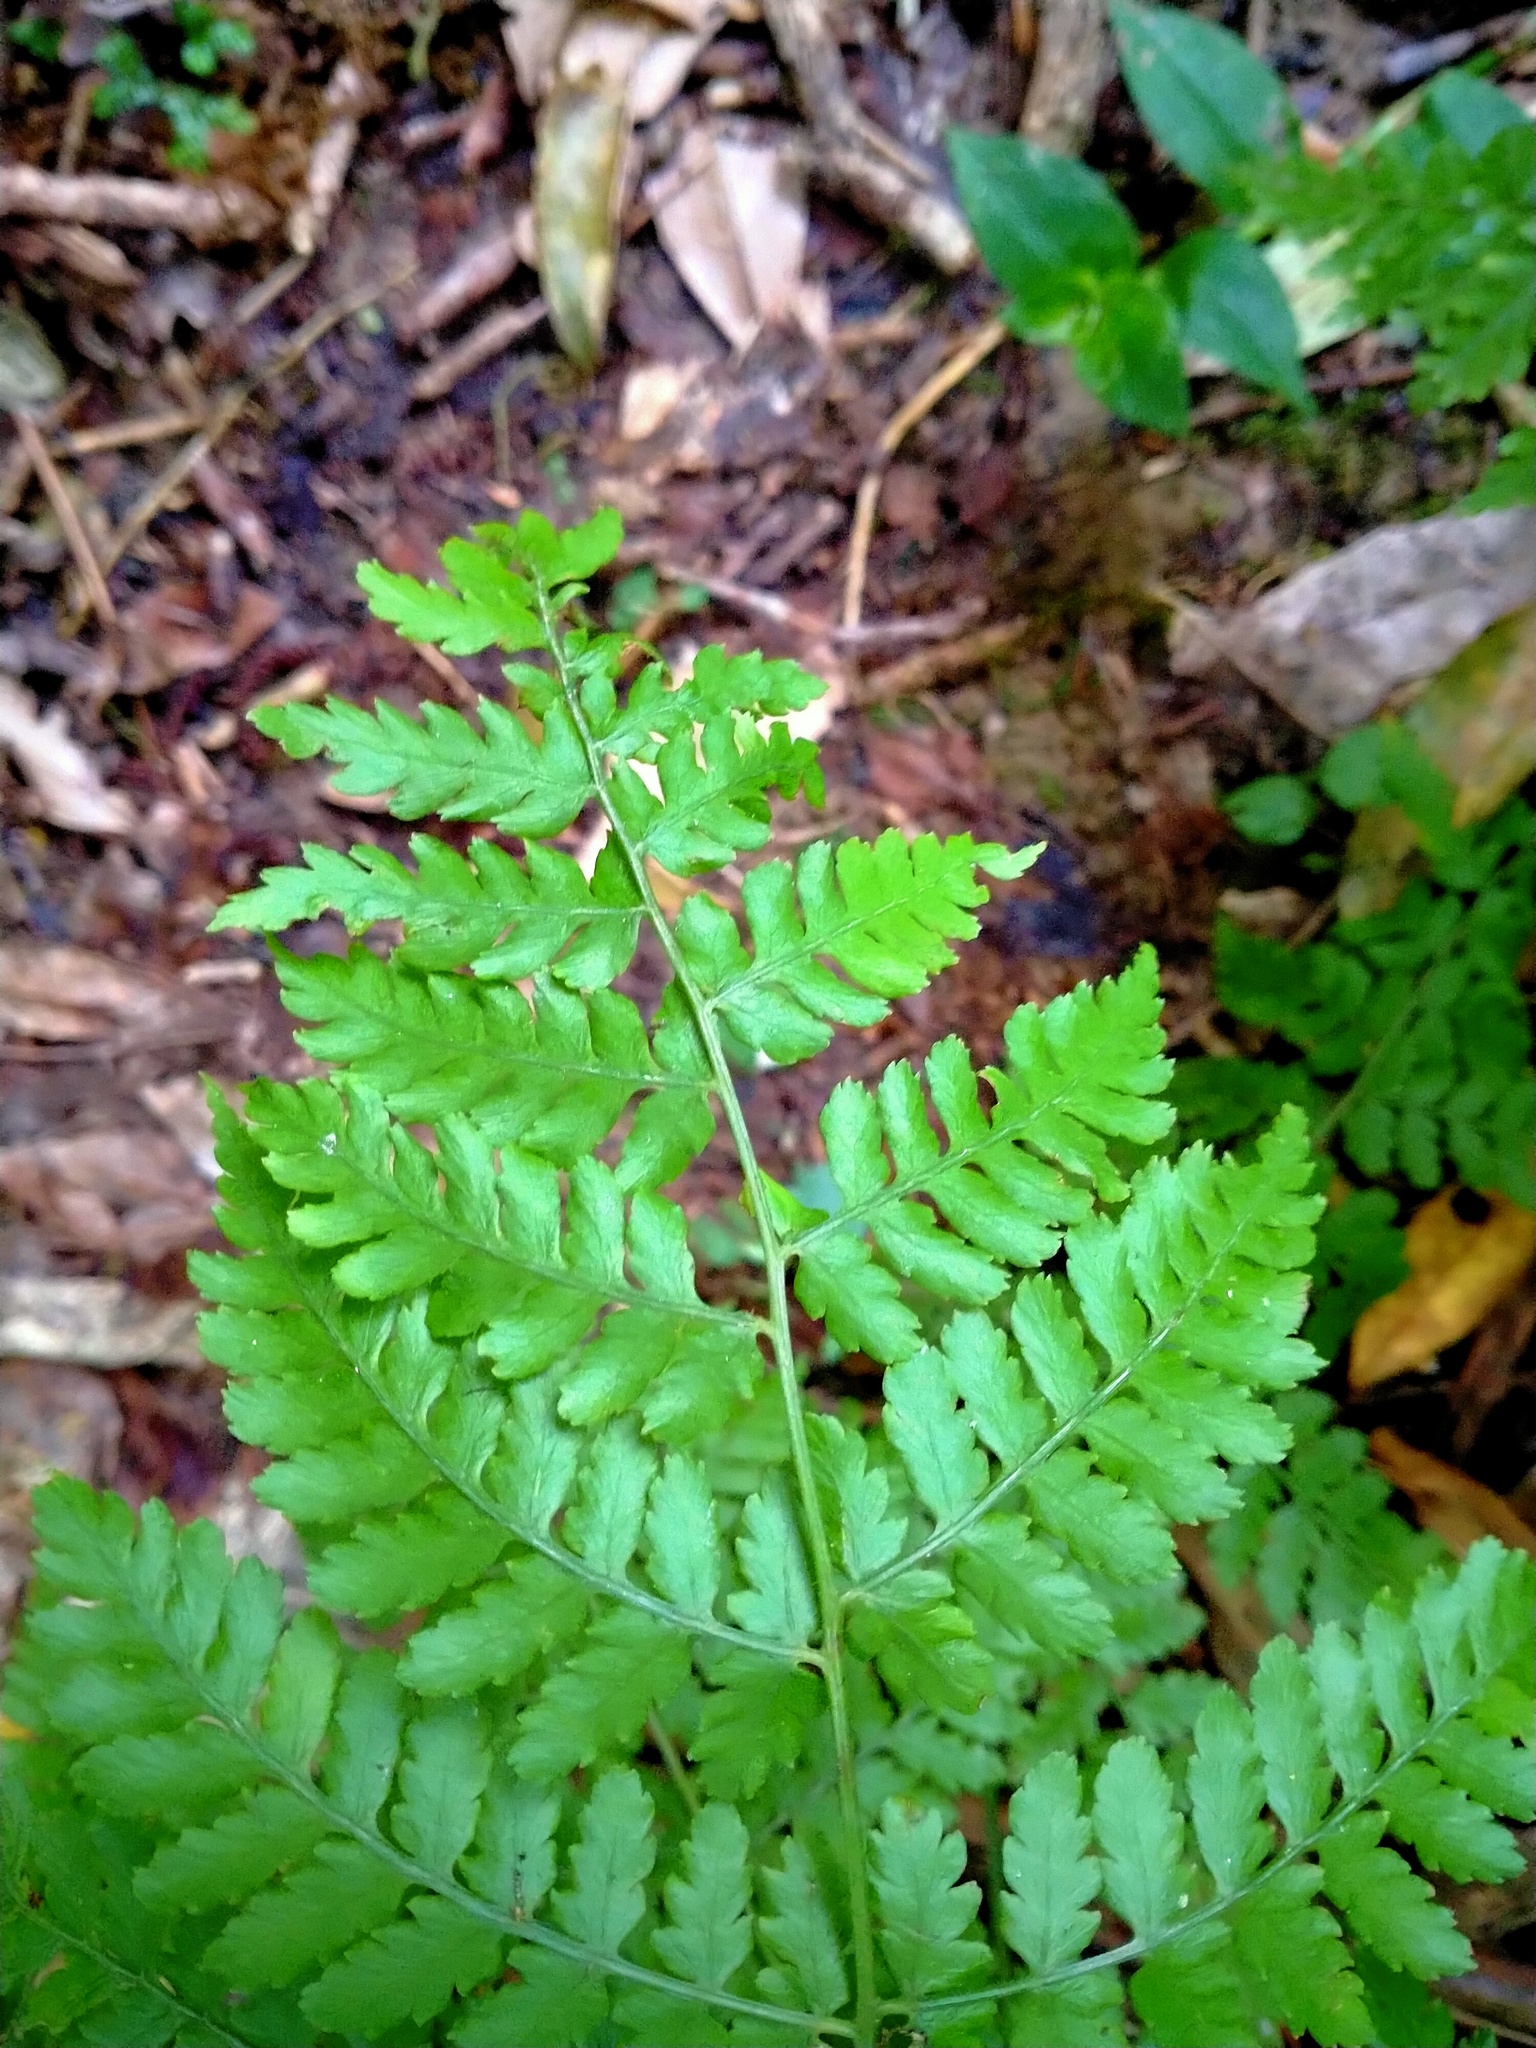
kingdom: Plantae
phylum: Tracheophyta
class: Polypodiopsida
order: Polypodiales
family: Athyriaceae
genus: Diplazium
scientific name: Diplazium australe
